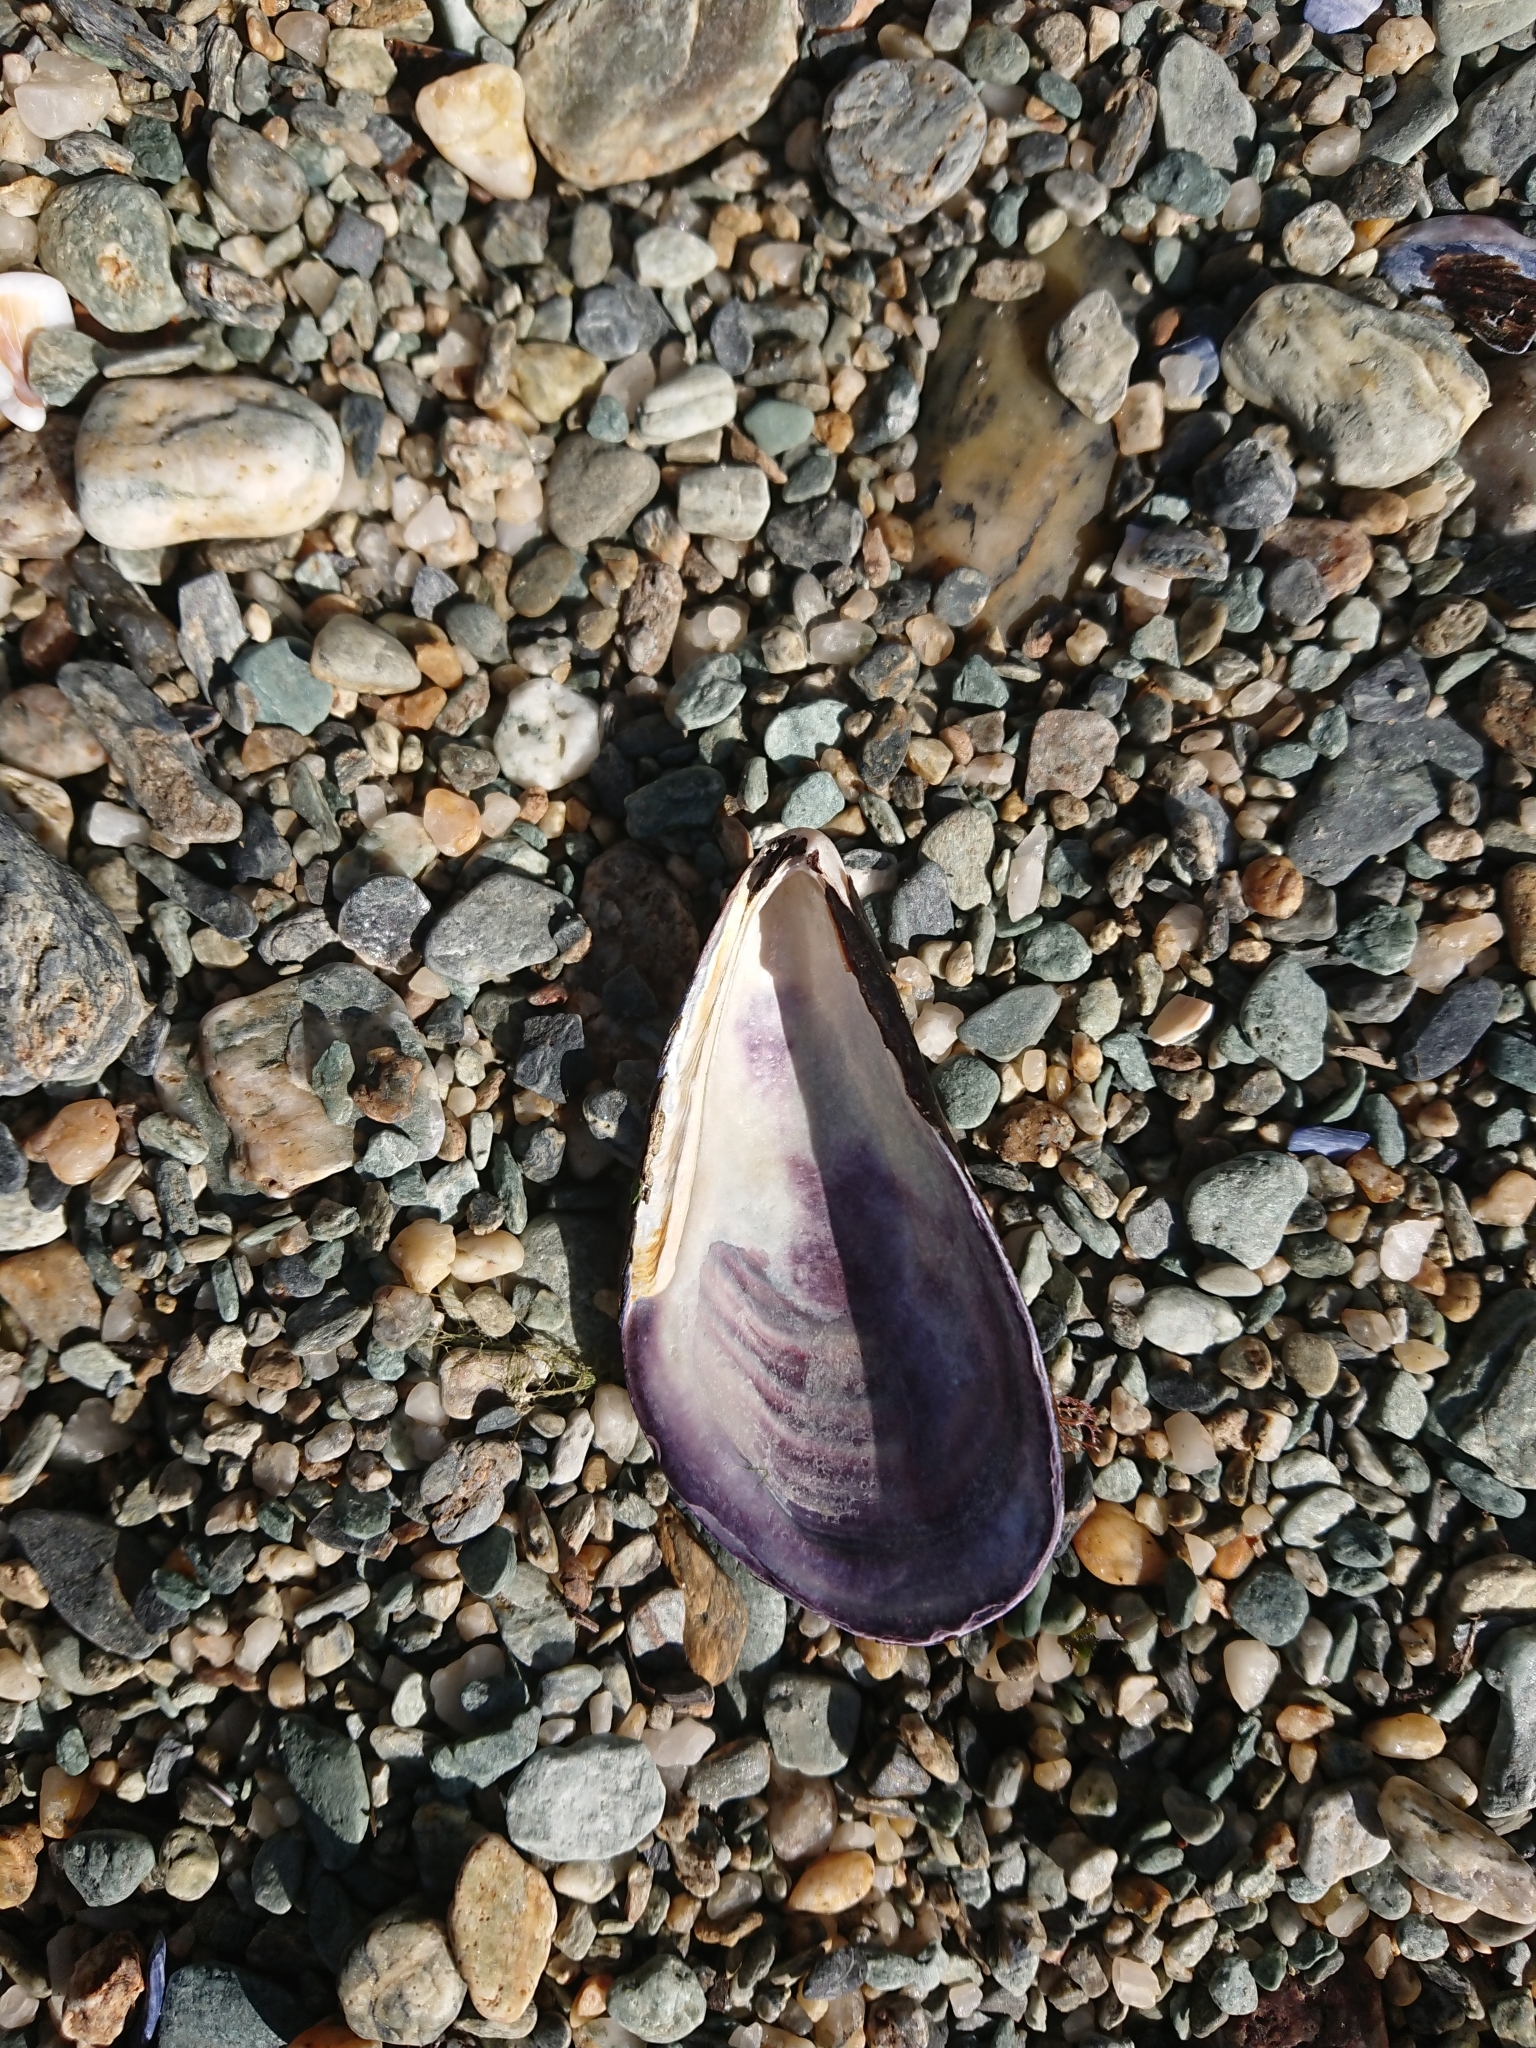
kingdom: Animalia
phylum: Mollusca
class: Bivalvia
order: Mytilida
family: Mytilidae
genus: Aulacomya
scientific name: Aulacomya atra
